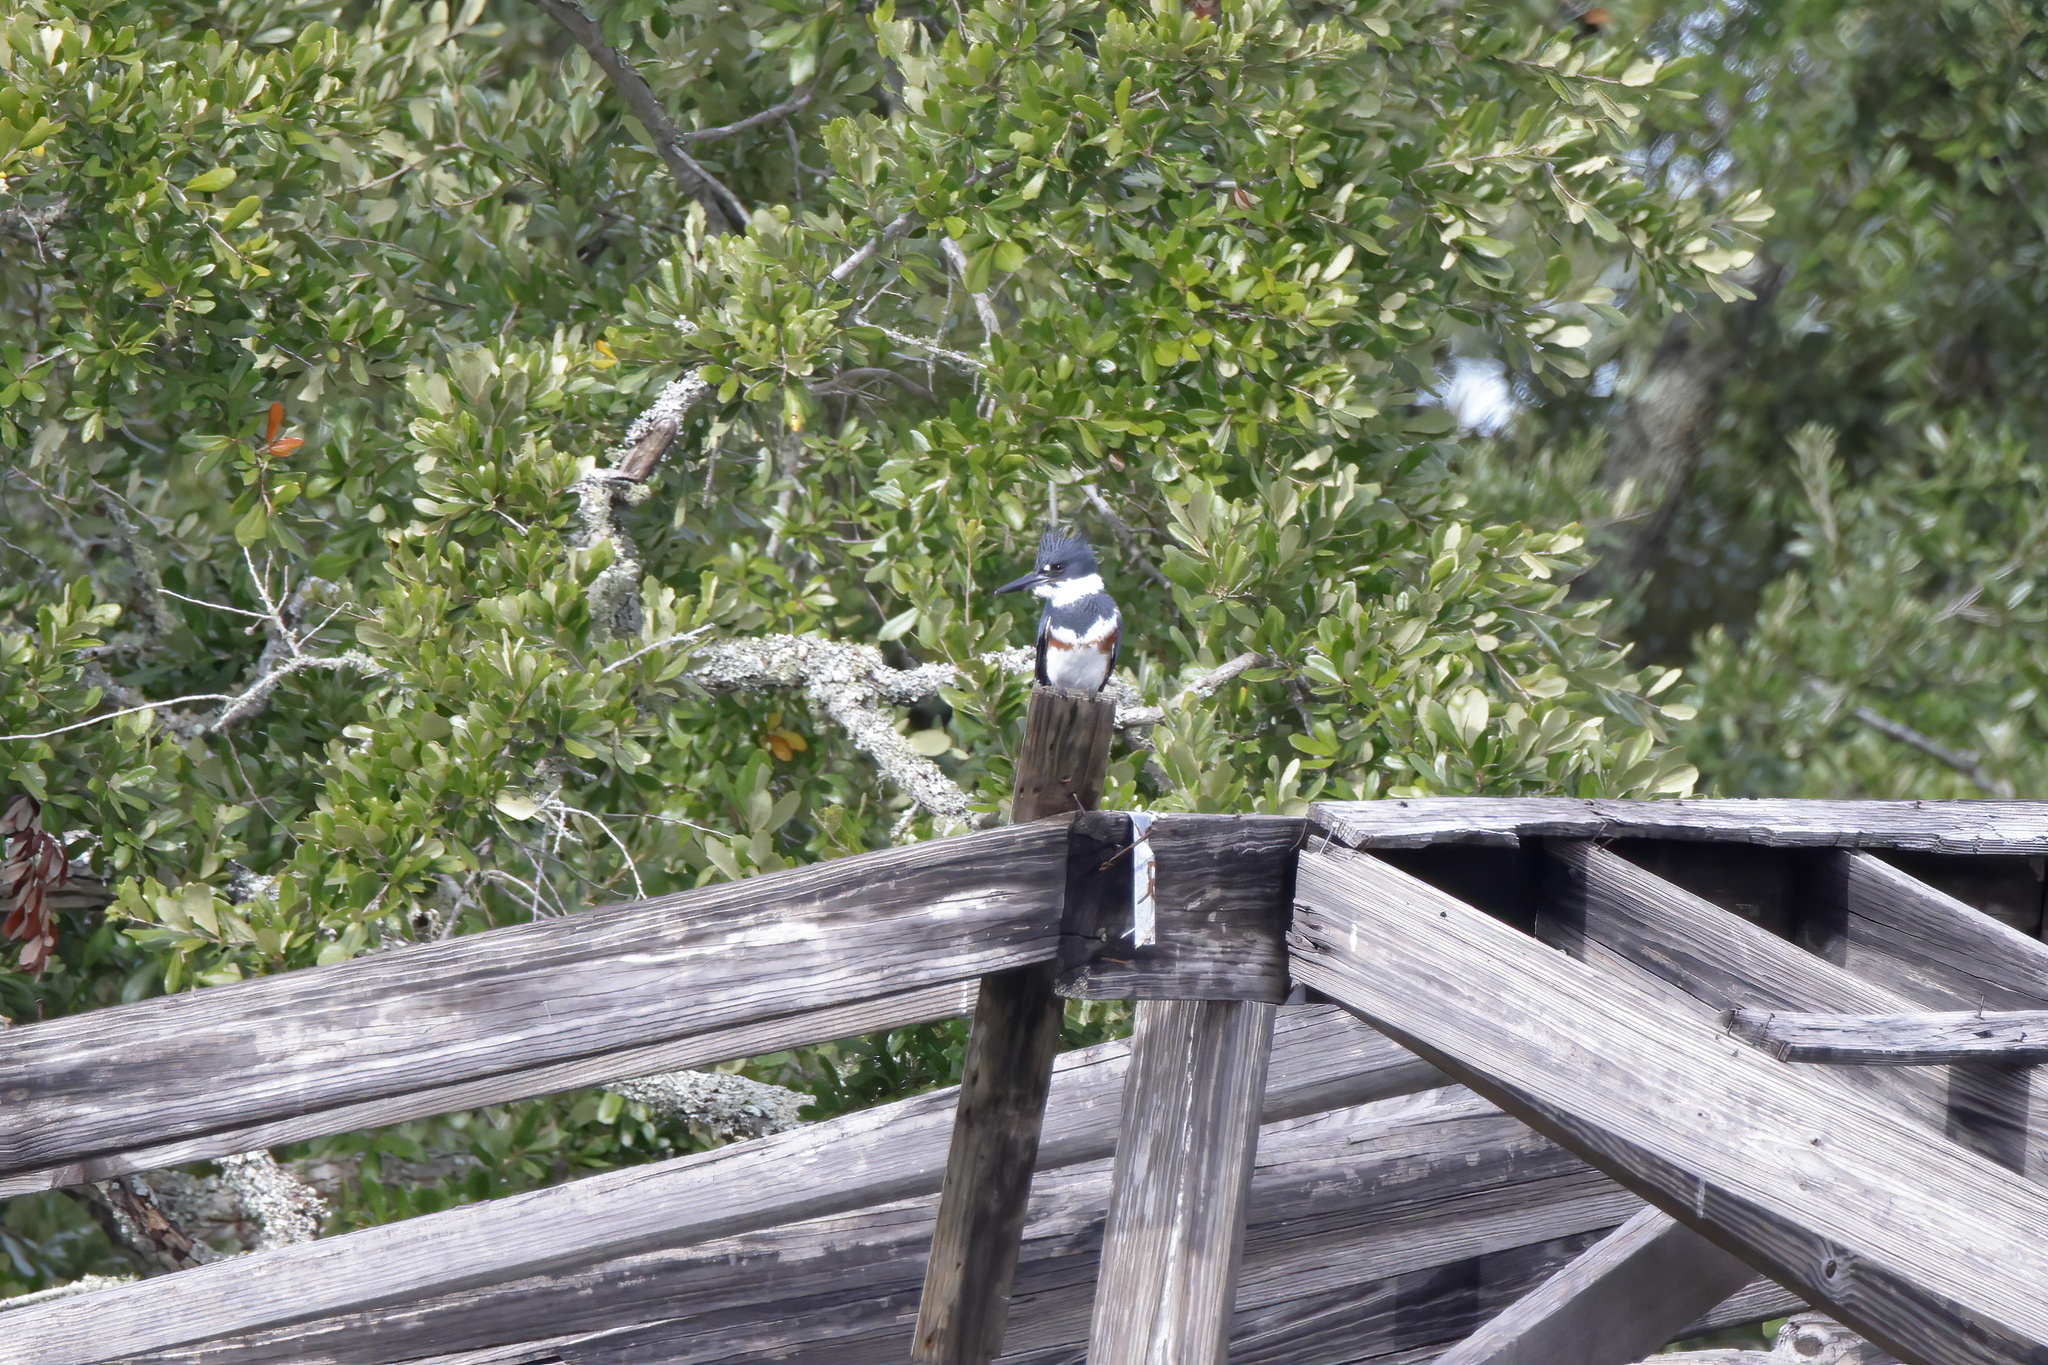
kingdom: Animalia
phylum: Chordata
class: Aves
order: Coraciiformes
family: Alcedinidae
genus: Megaceryle
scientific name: Megaceryle alcyon
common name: Belted kingfisher
